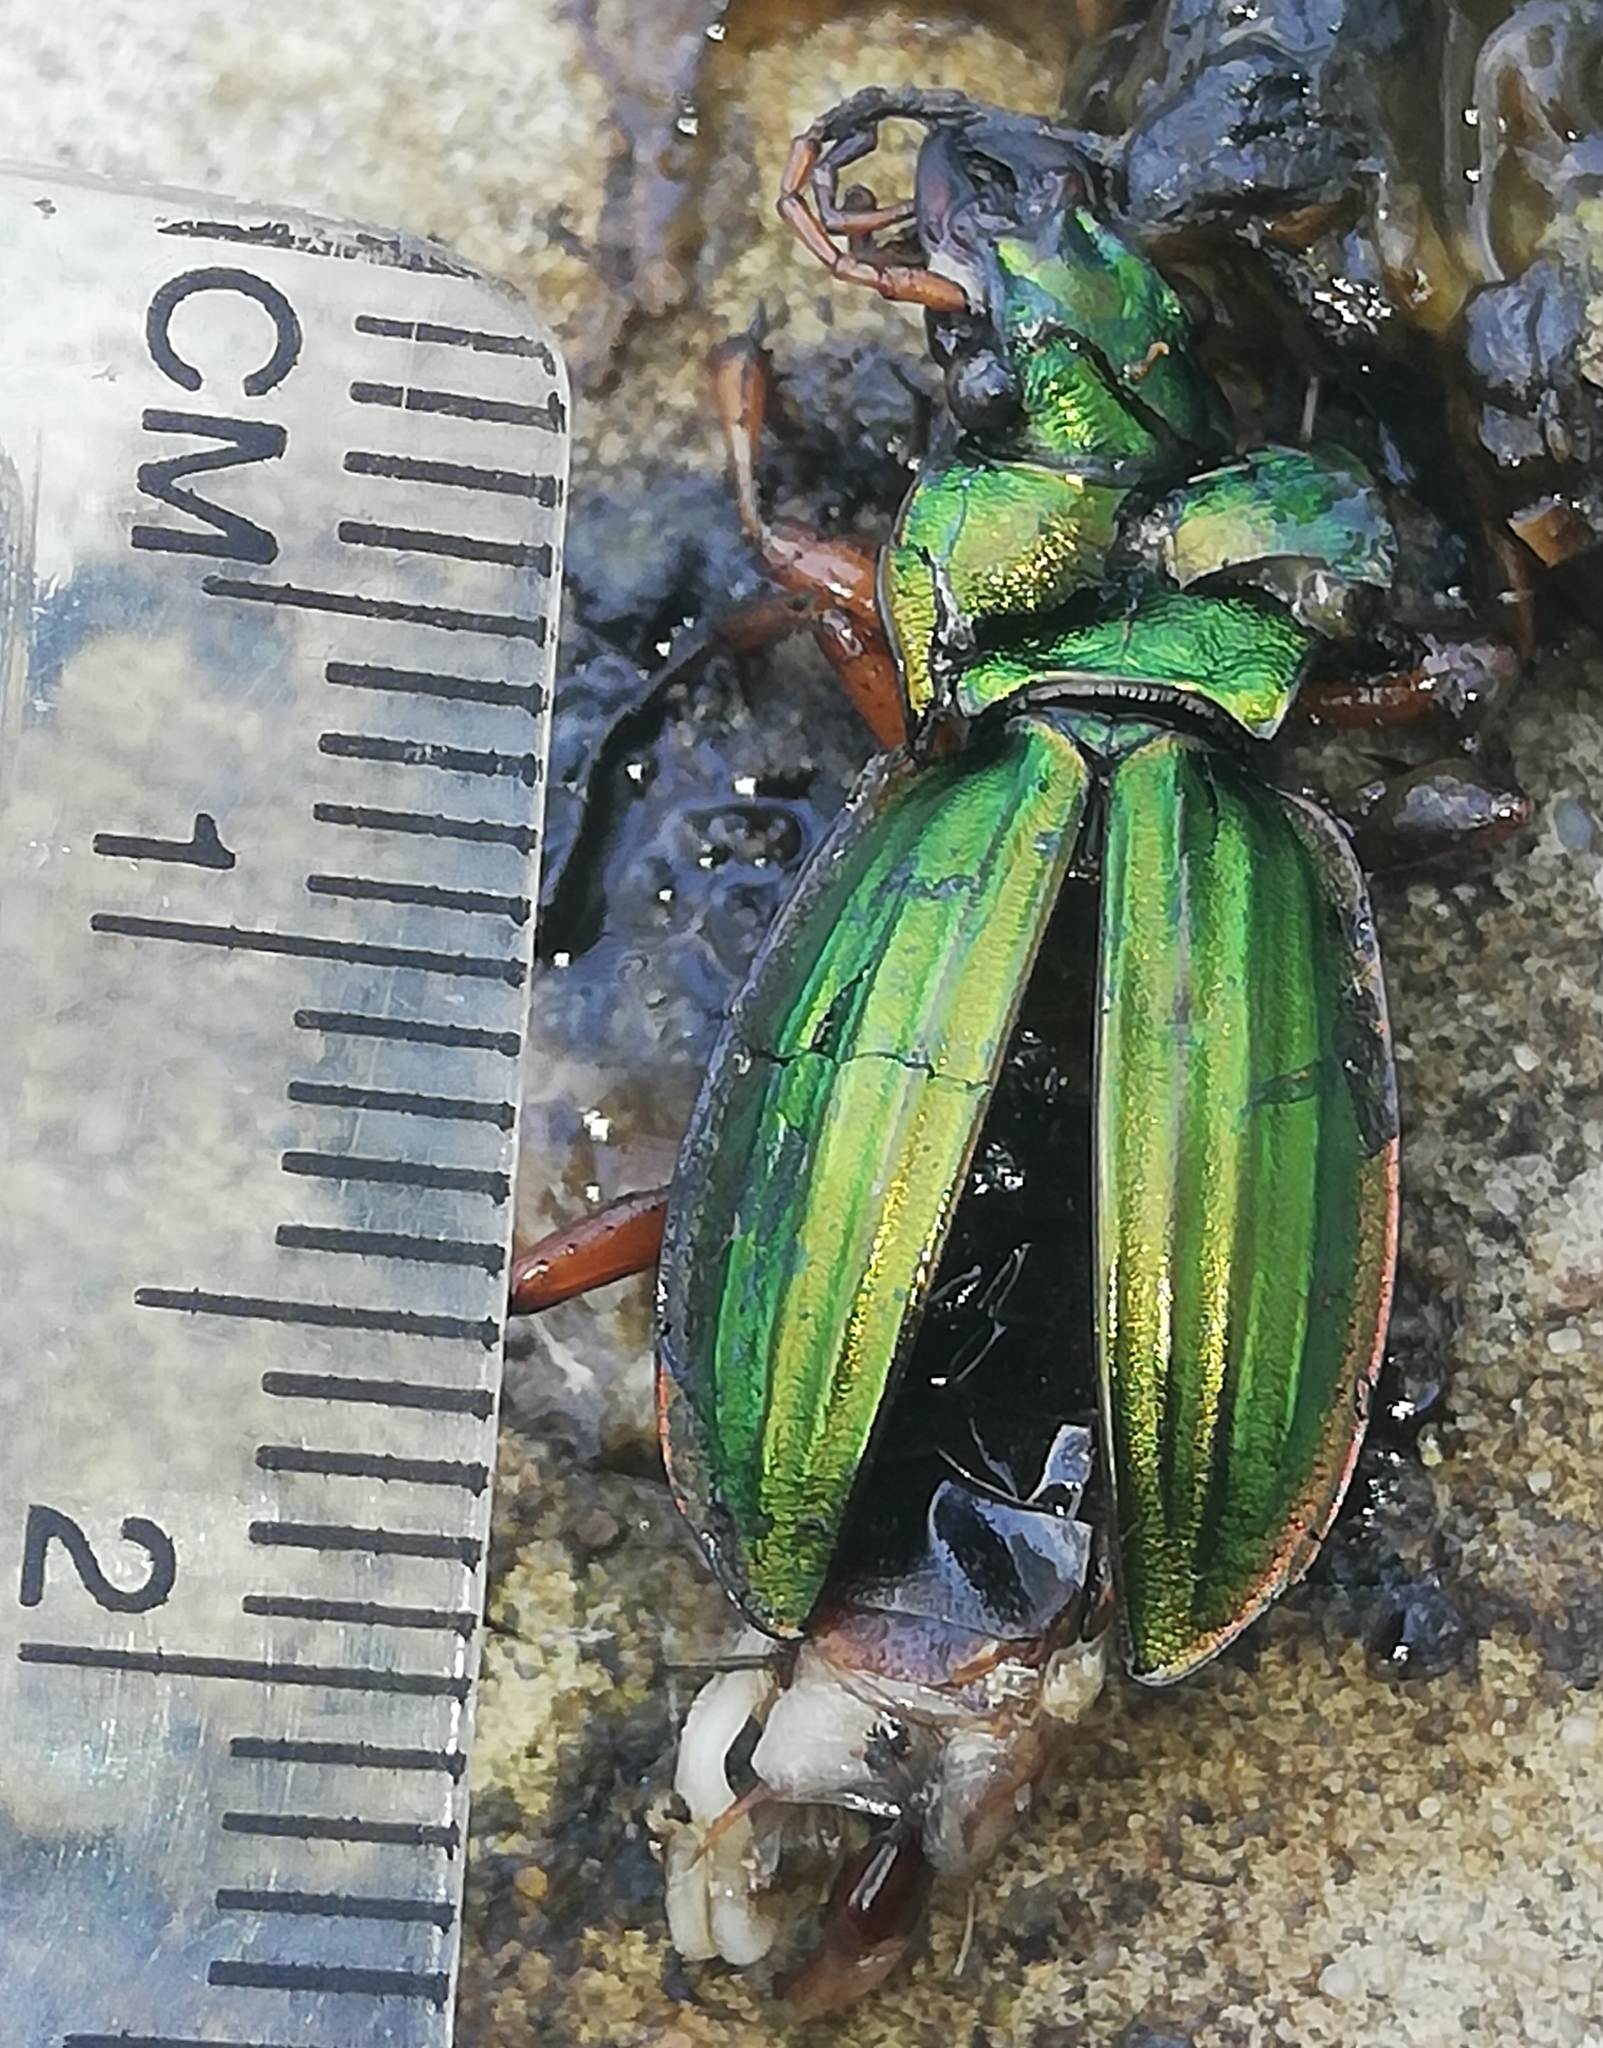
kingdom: Animalia
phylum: Arthropoda
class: Insecta
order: Coleoptera
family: Carabidae
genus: Carabus
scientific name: Carabus auratus
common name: Golden ground beetle
